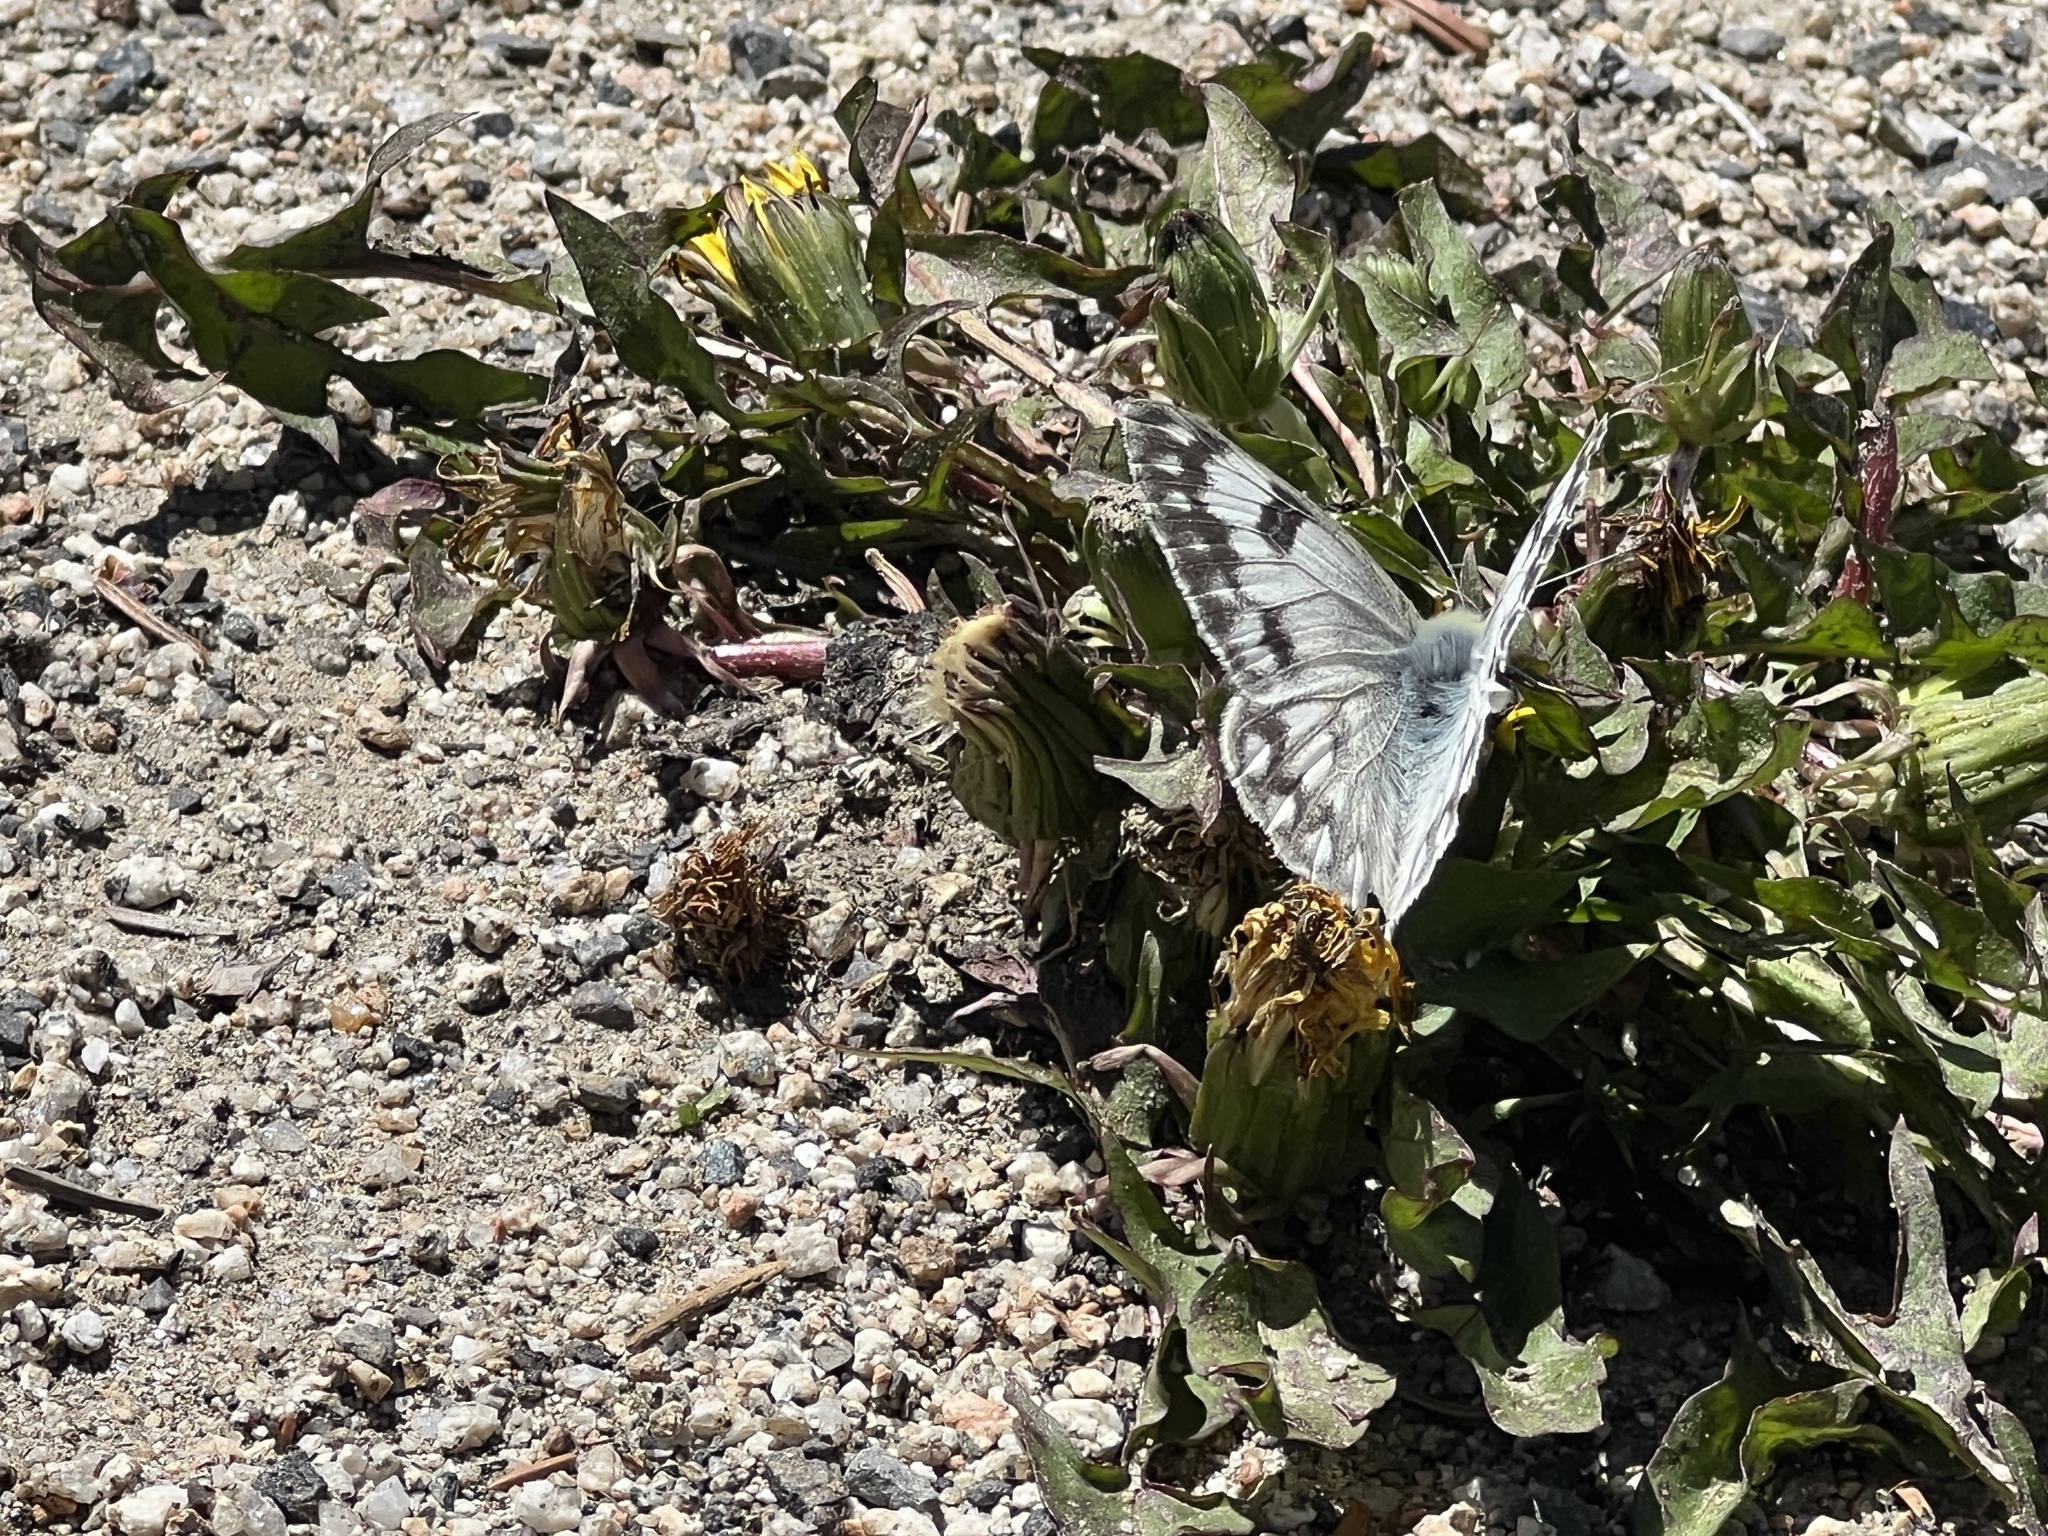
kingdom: Animalia
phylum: Arthropoda
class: Insecta
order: Lepidoptera
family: Pieridae
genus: Pontia
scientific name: Pontia occidentalis
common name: Western white
